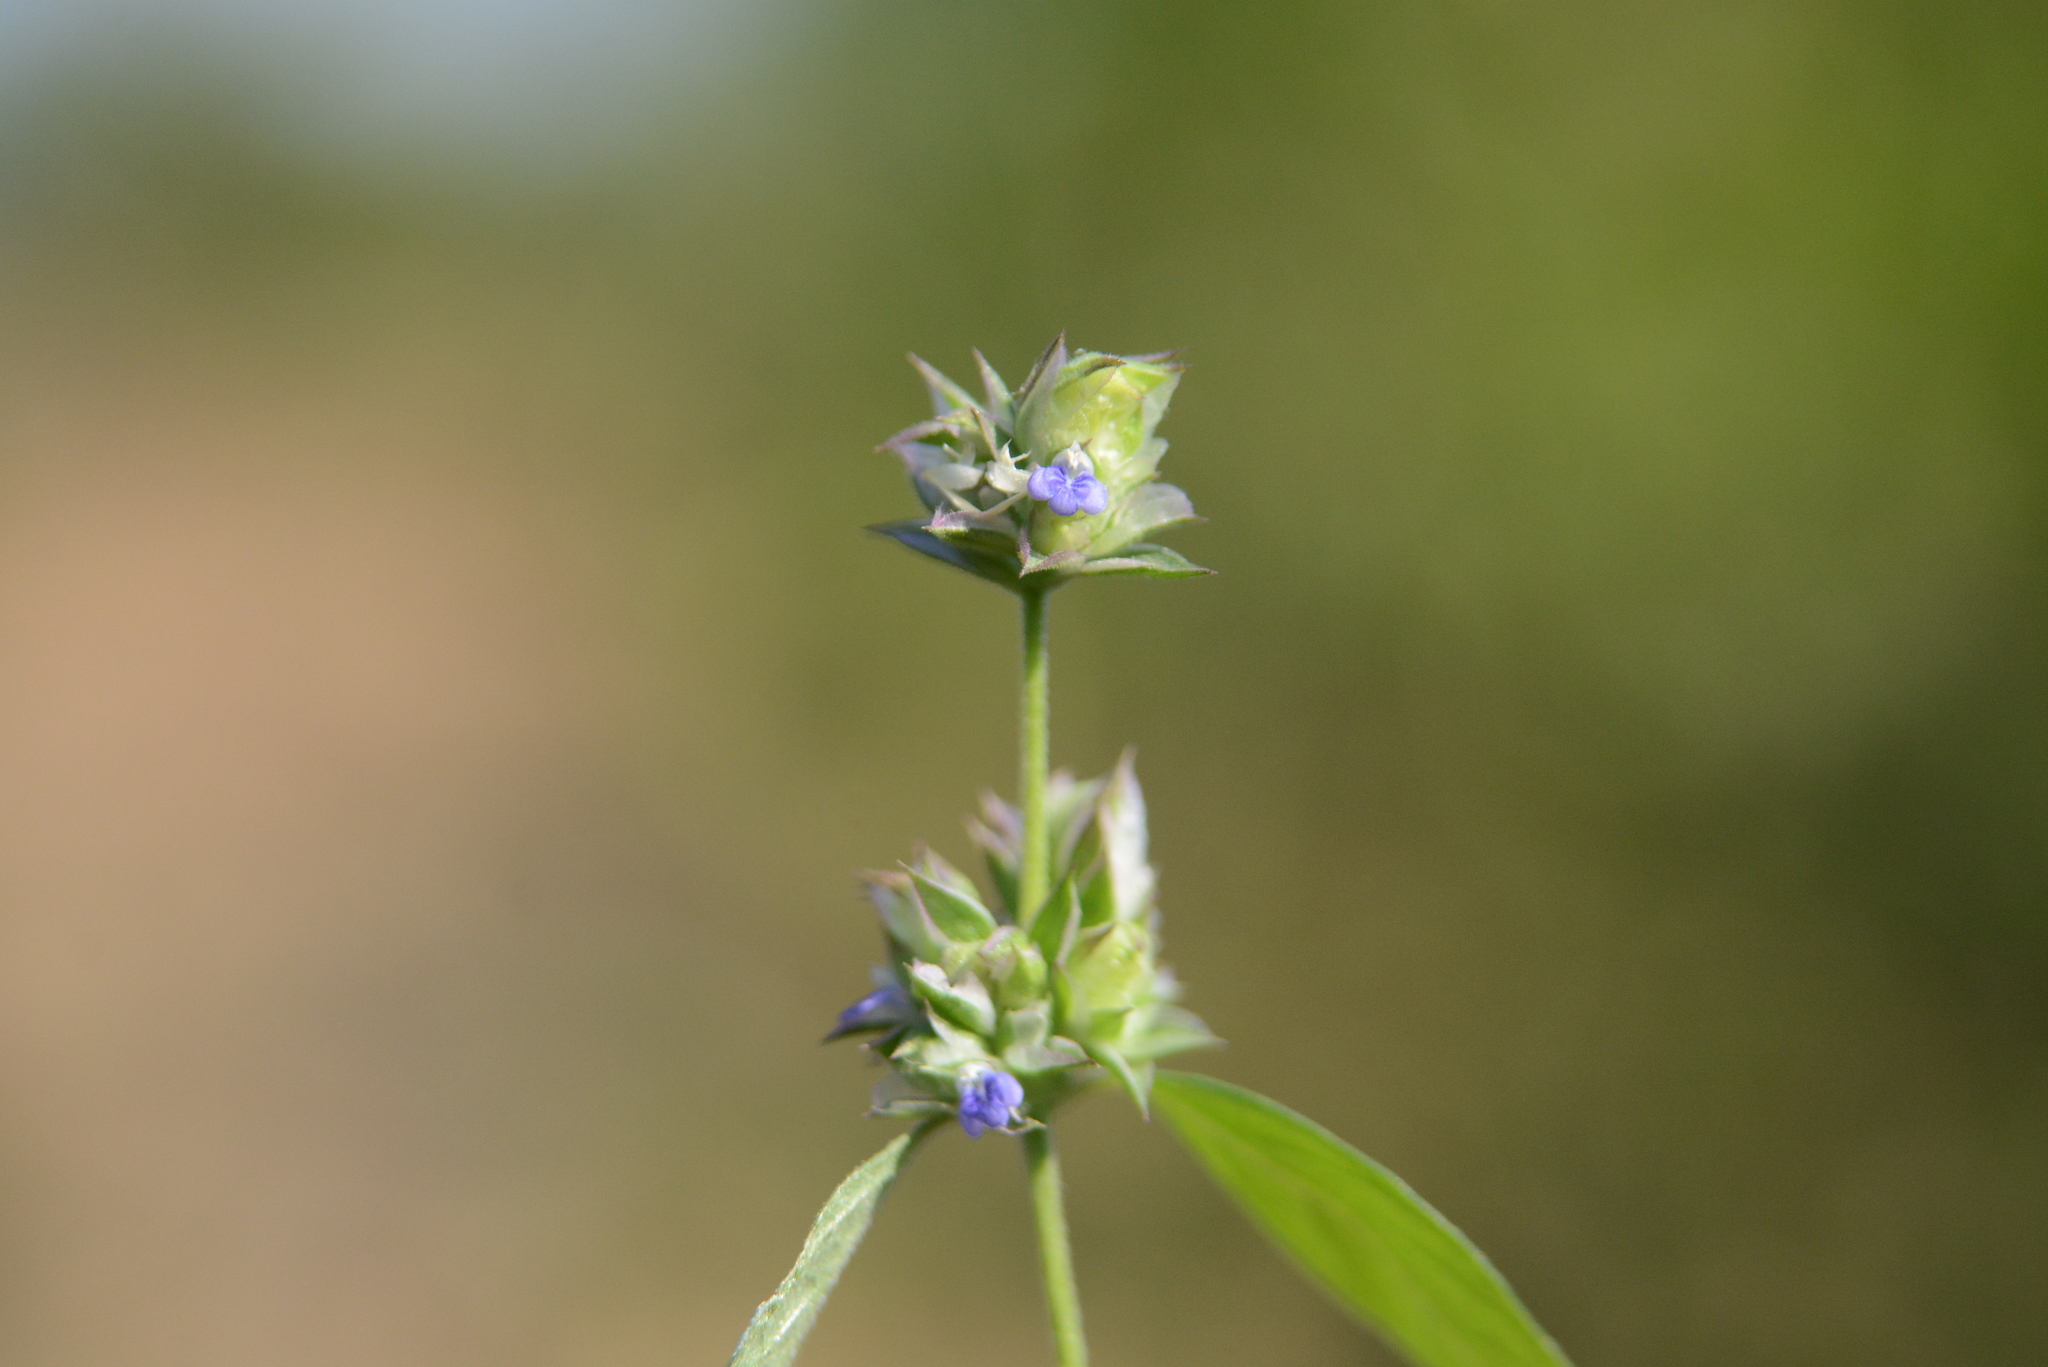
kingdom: Plantae
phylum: Tracheophyta
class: Magnoliopsida
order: Lamiales
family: Acanthaceae
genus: Rungia
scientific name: Rungia pectinata
